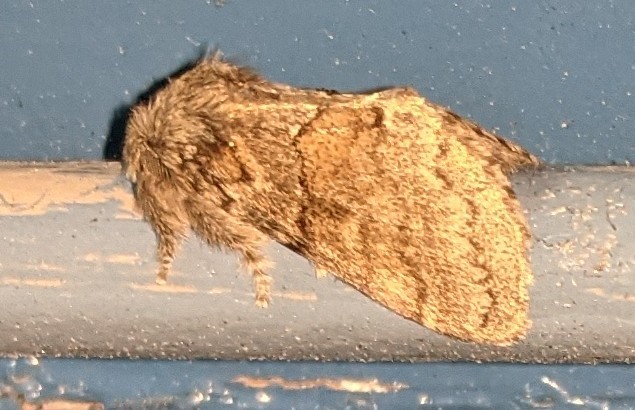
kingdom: Animalia
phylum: Arthropoda
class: Insecta
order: Lepidoptera
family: Notodontidae
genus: Gluphisia
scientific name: Gluphisia septentrionis
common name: Common gluphisia
